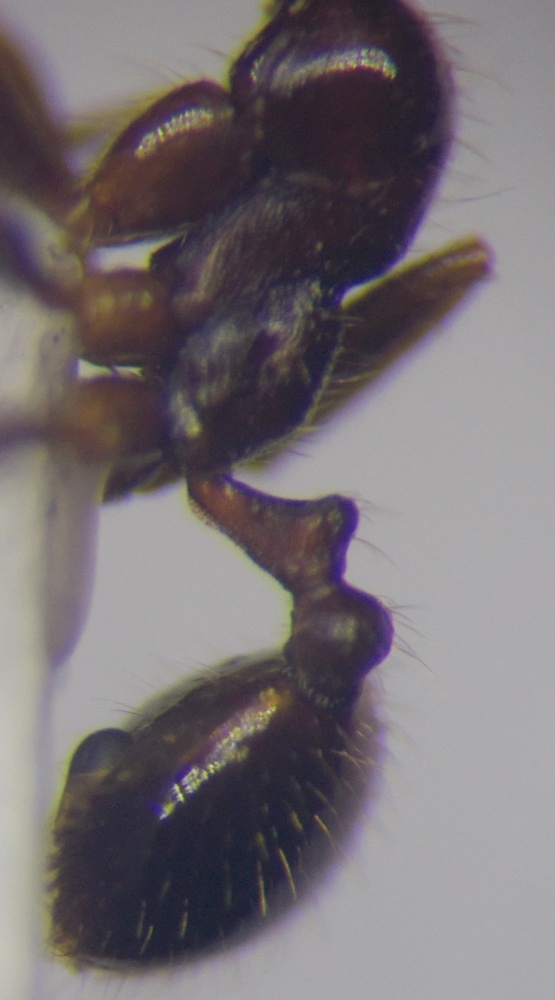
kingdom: Animalia
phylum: Arthropoda
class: Insecta
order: Hymenoptera
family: Formicidae
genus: Monomorium
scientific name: Monomorium perplexum
